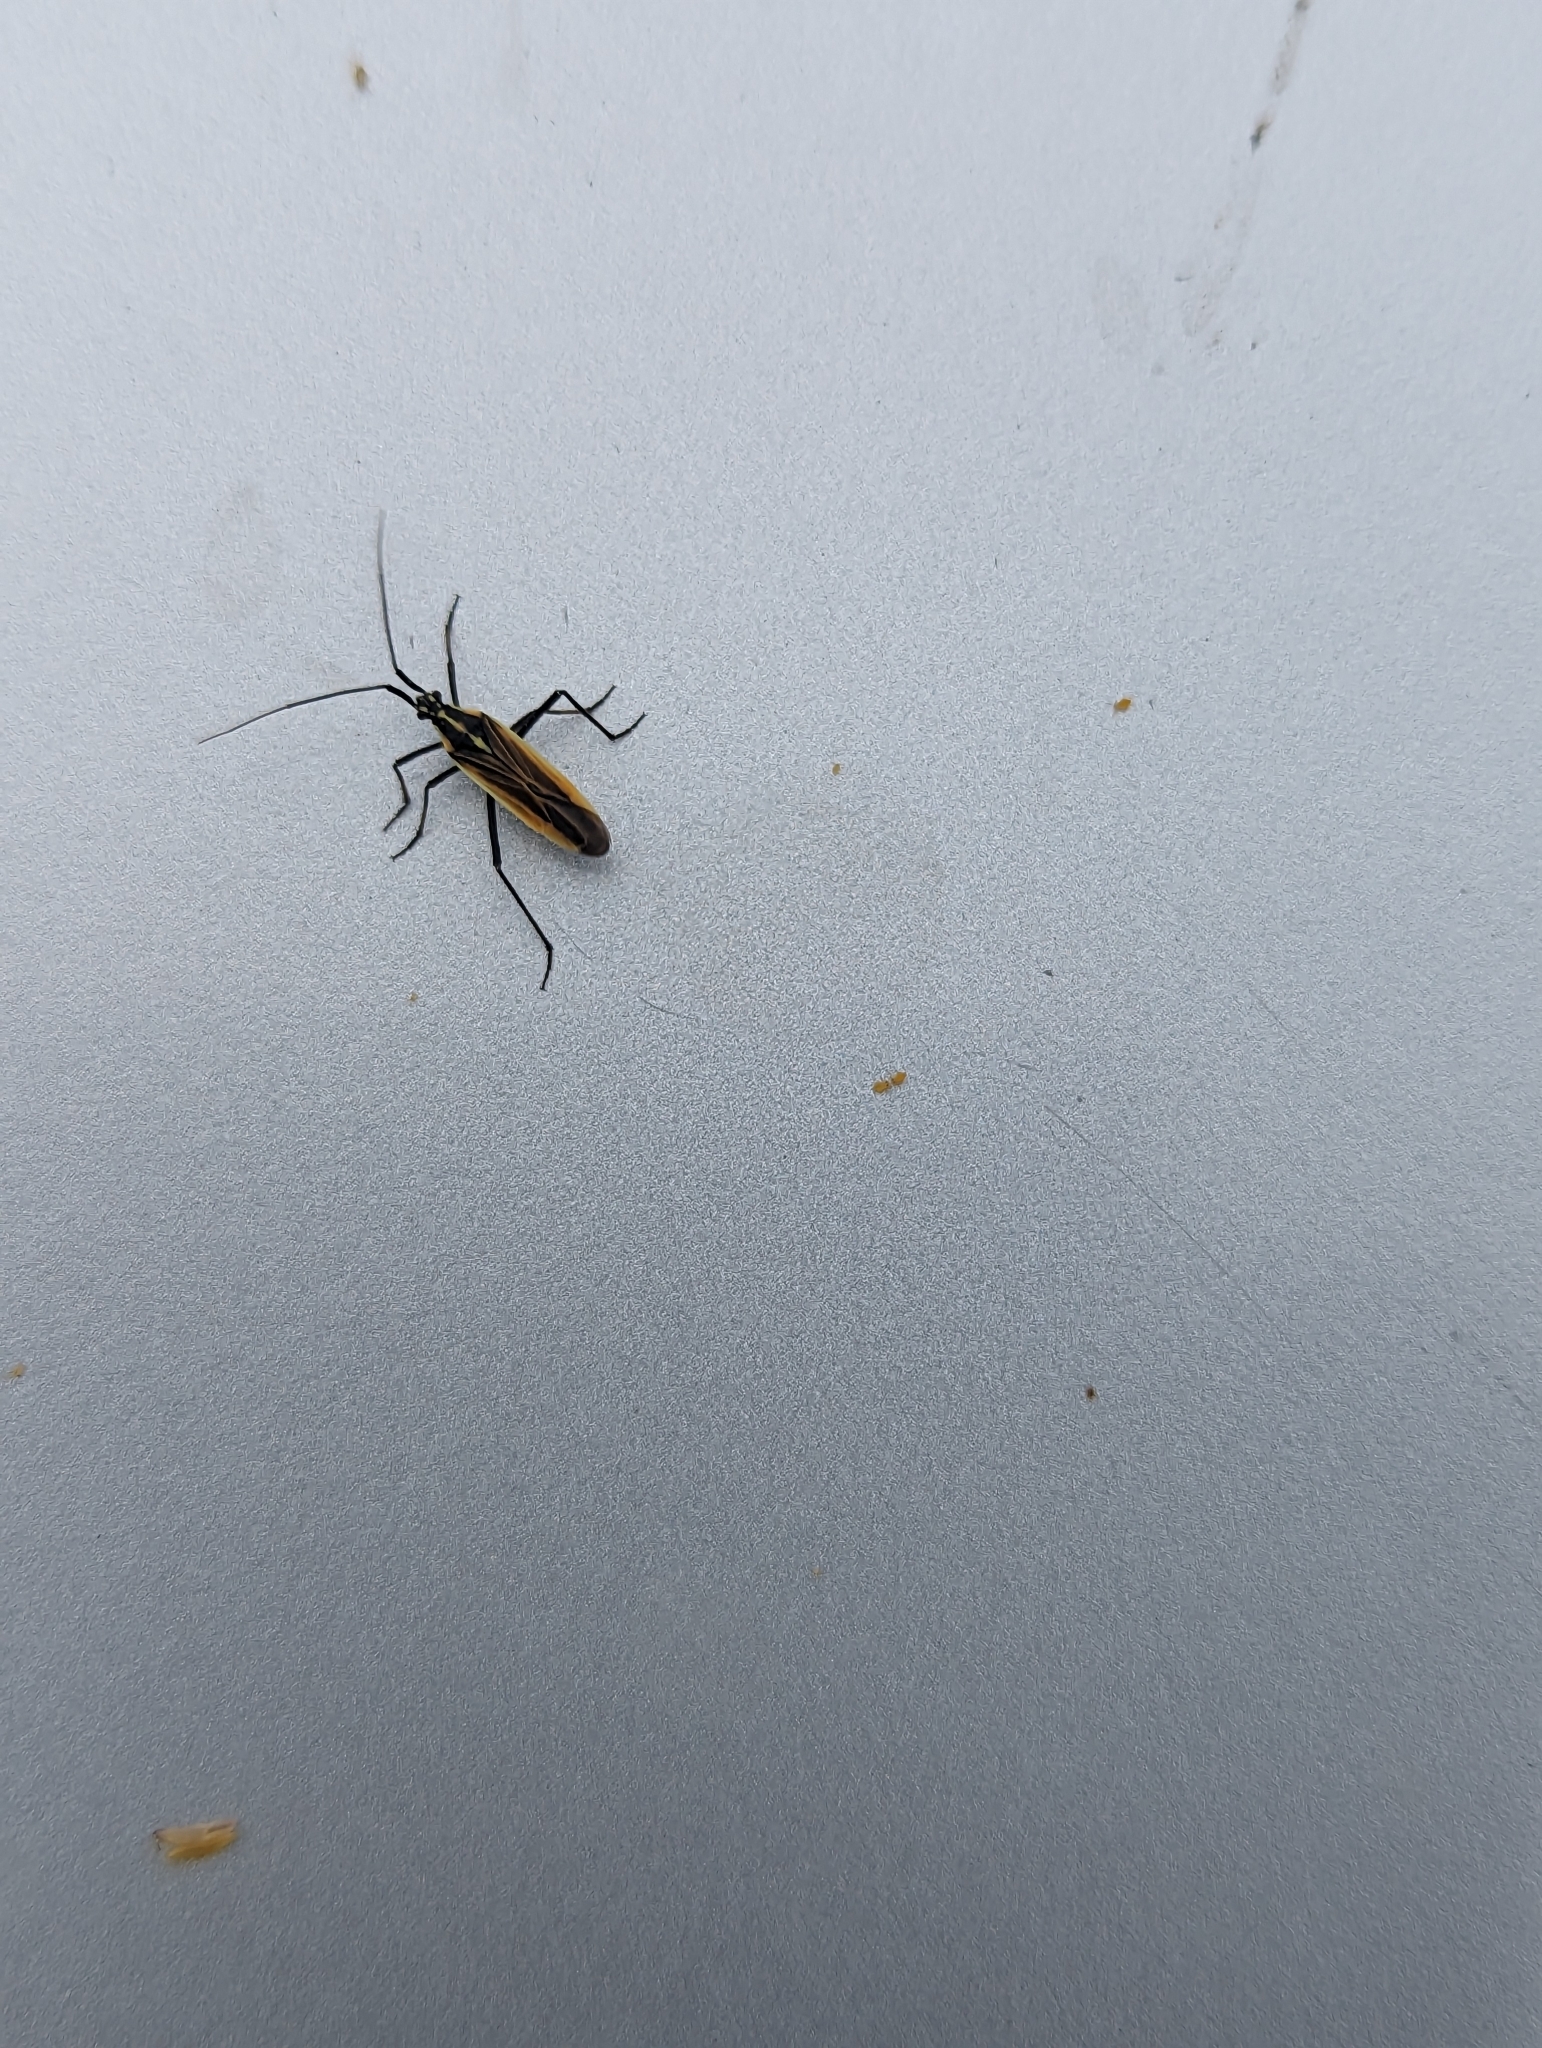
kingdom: Animalia
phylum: Arthropoda
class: Insecta
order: Hemiptera
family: Miridae
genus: Leptopterna
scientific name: Leptopterna dolabrata
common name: Meadow plant bug
